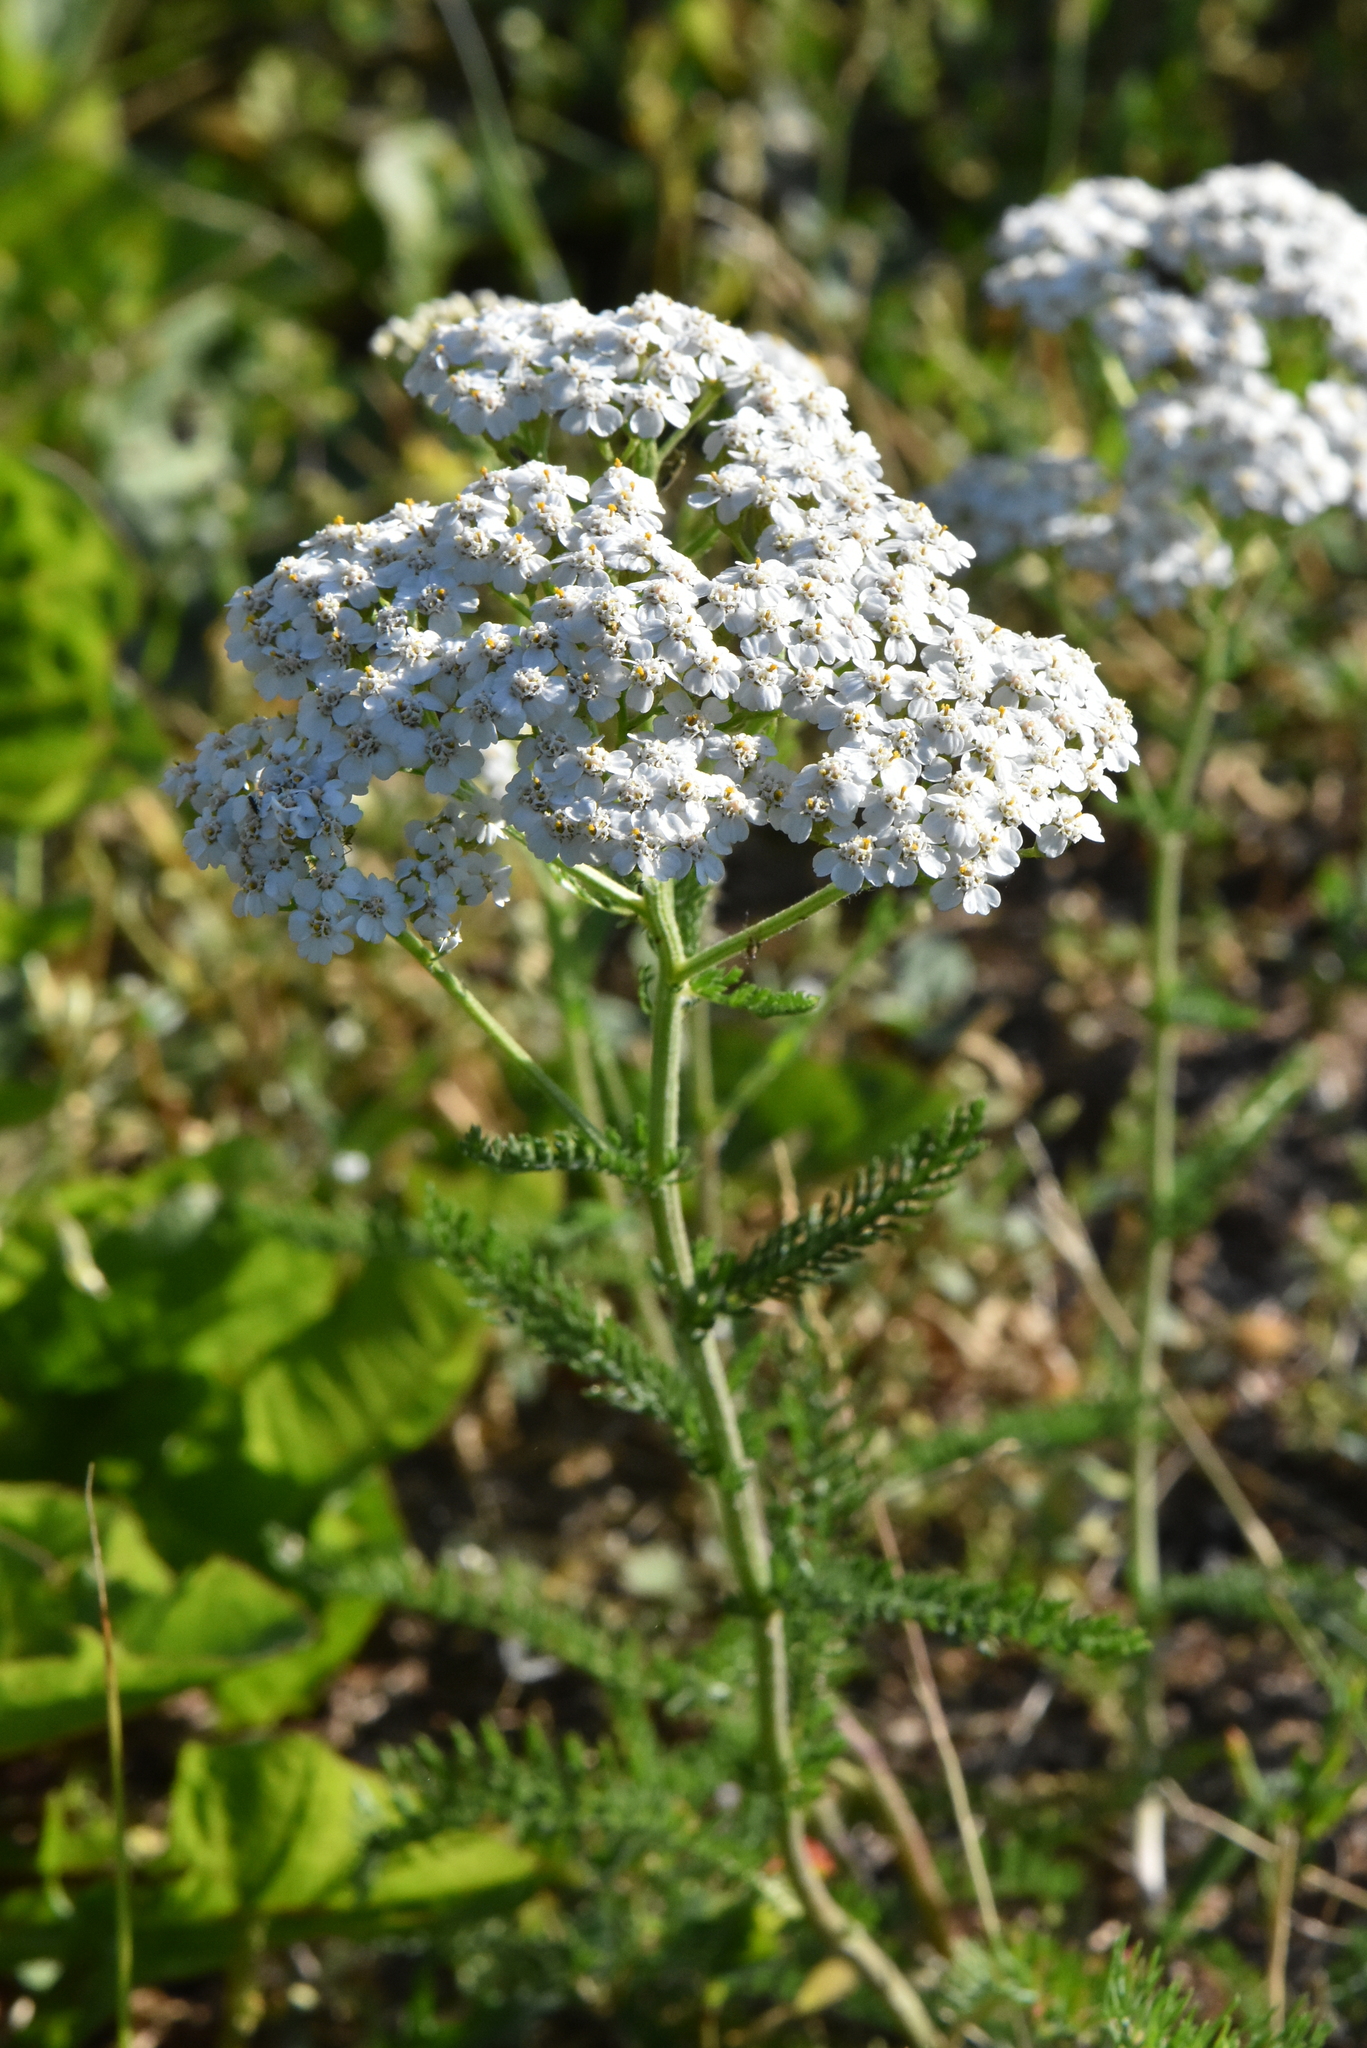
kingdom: Plantae
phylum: Tracheophyta
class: Magnoliopsida
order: Asterales
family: Asteraceae
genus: Achillea
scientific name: Achillea millefolium
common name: Yarrow
